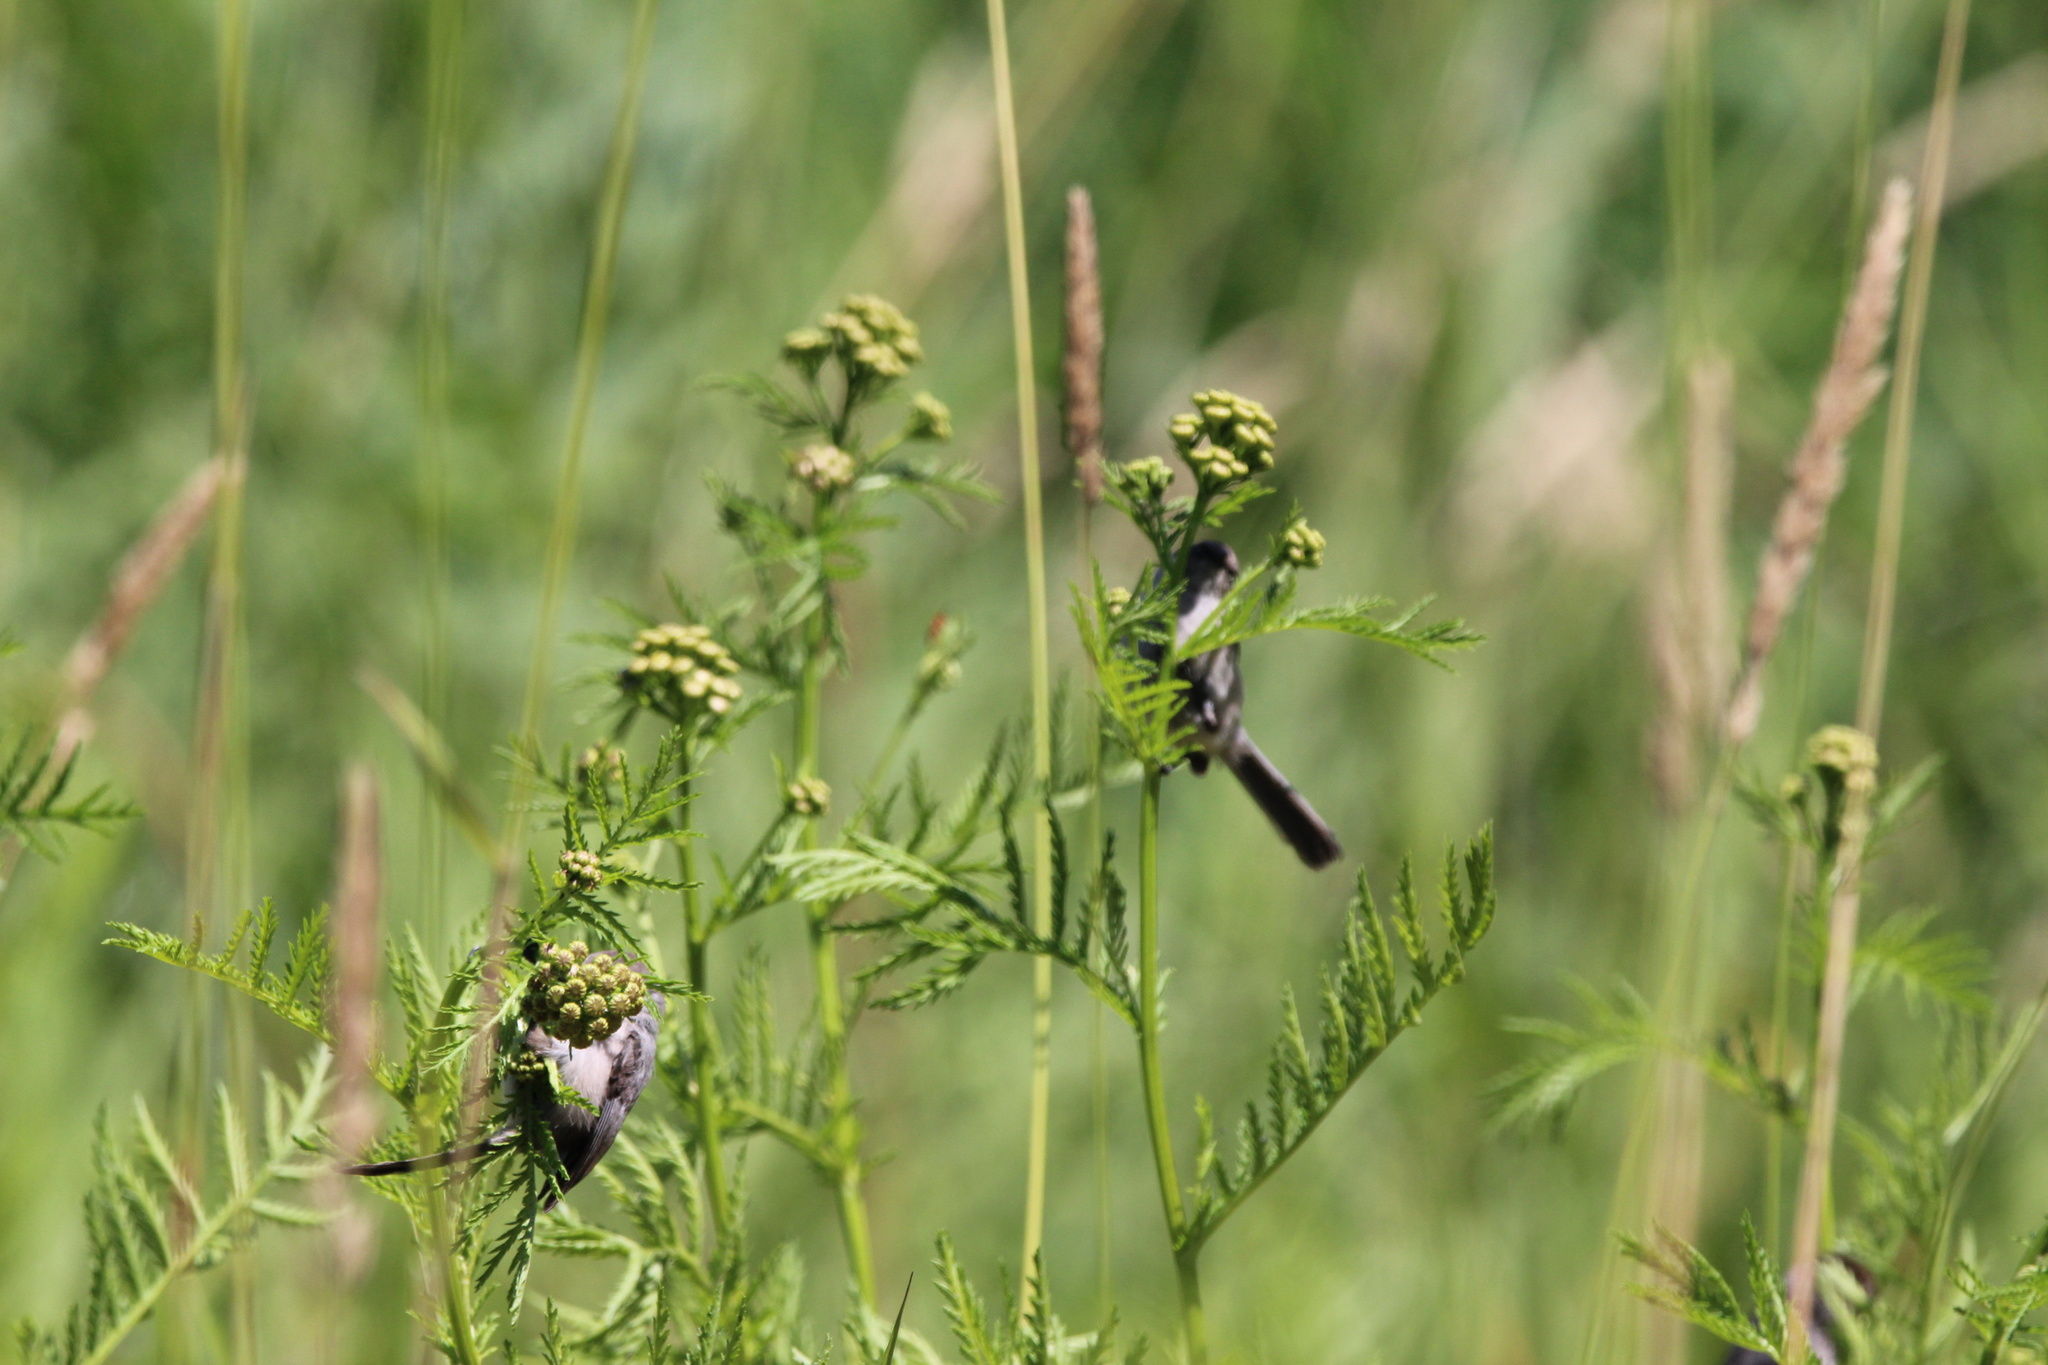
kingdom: Animalia
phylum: Chordata
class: Aves
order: Passeriformes
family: Aegithalidae
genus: Psaltriparus
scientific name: Psaltriparus minimus
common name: American bushtit
